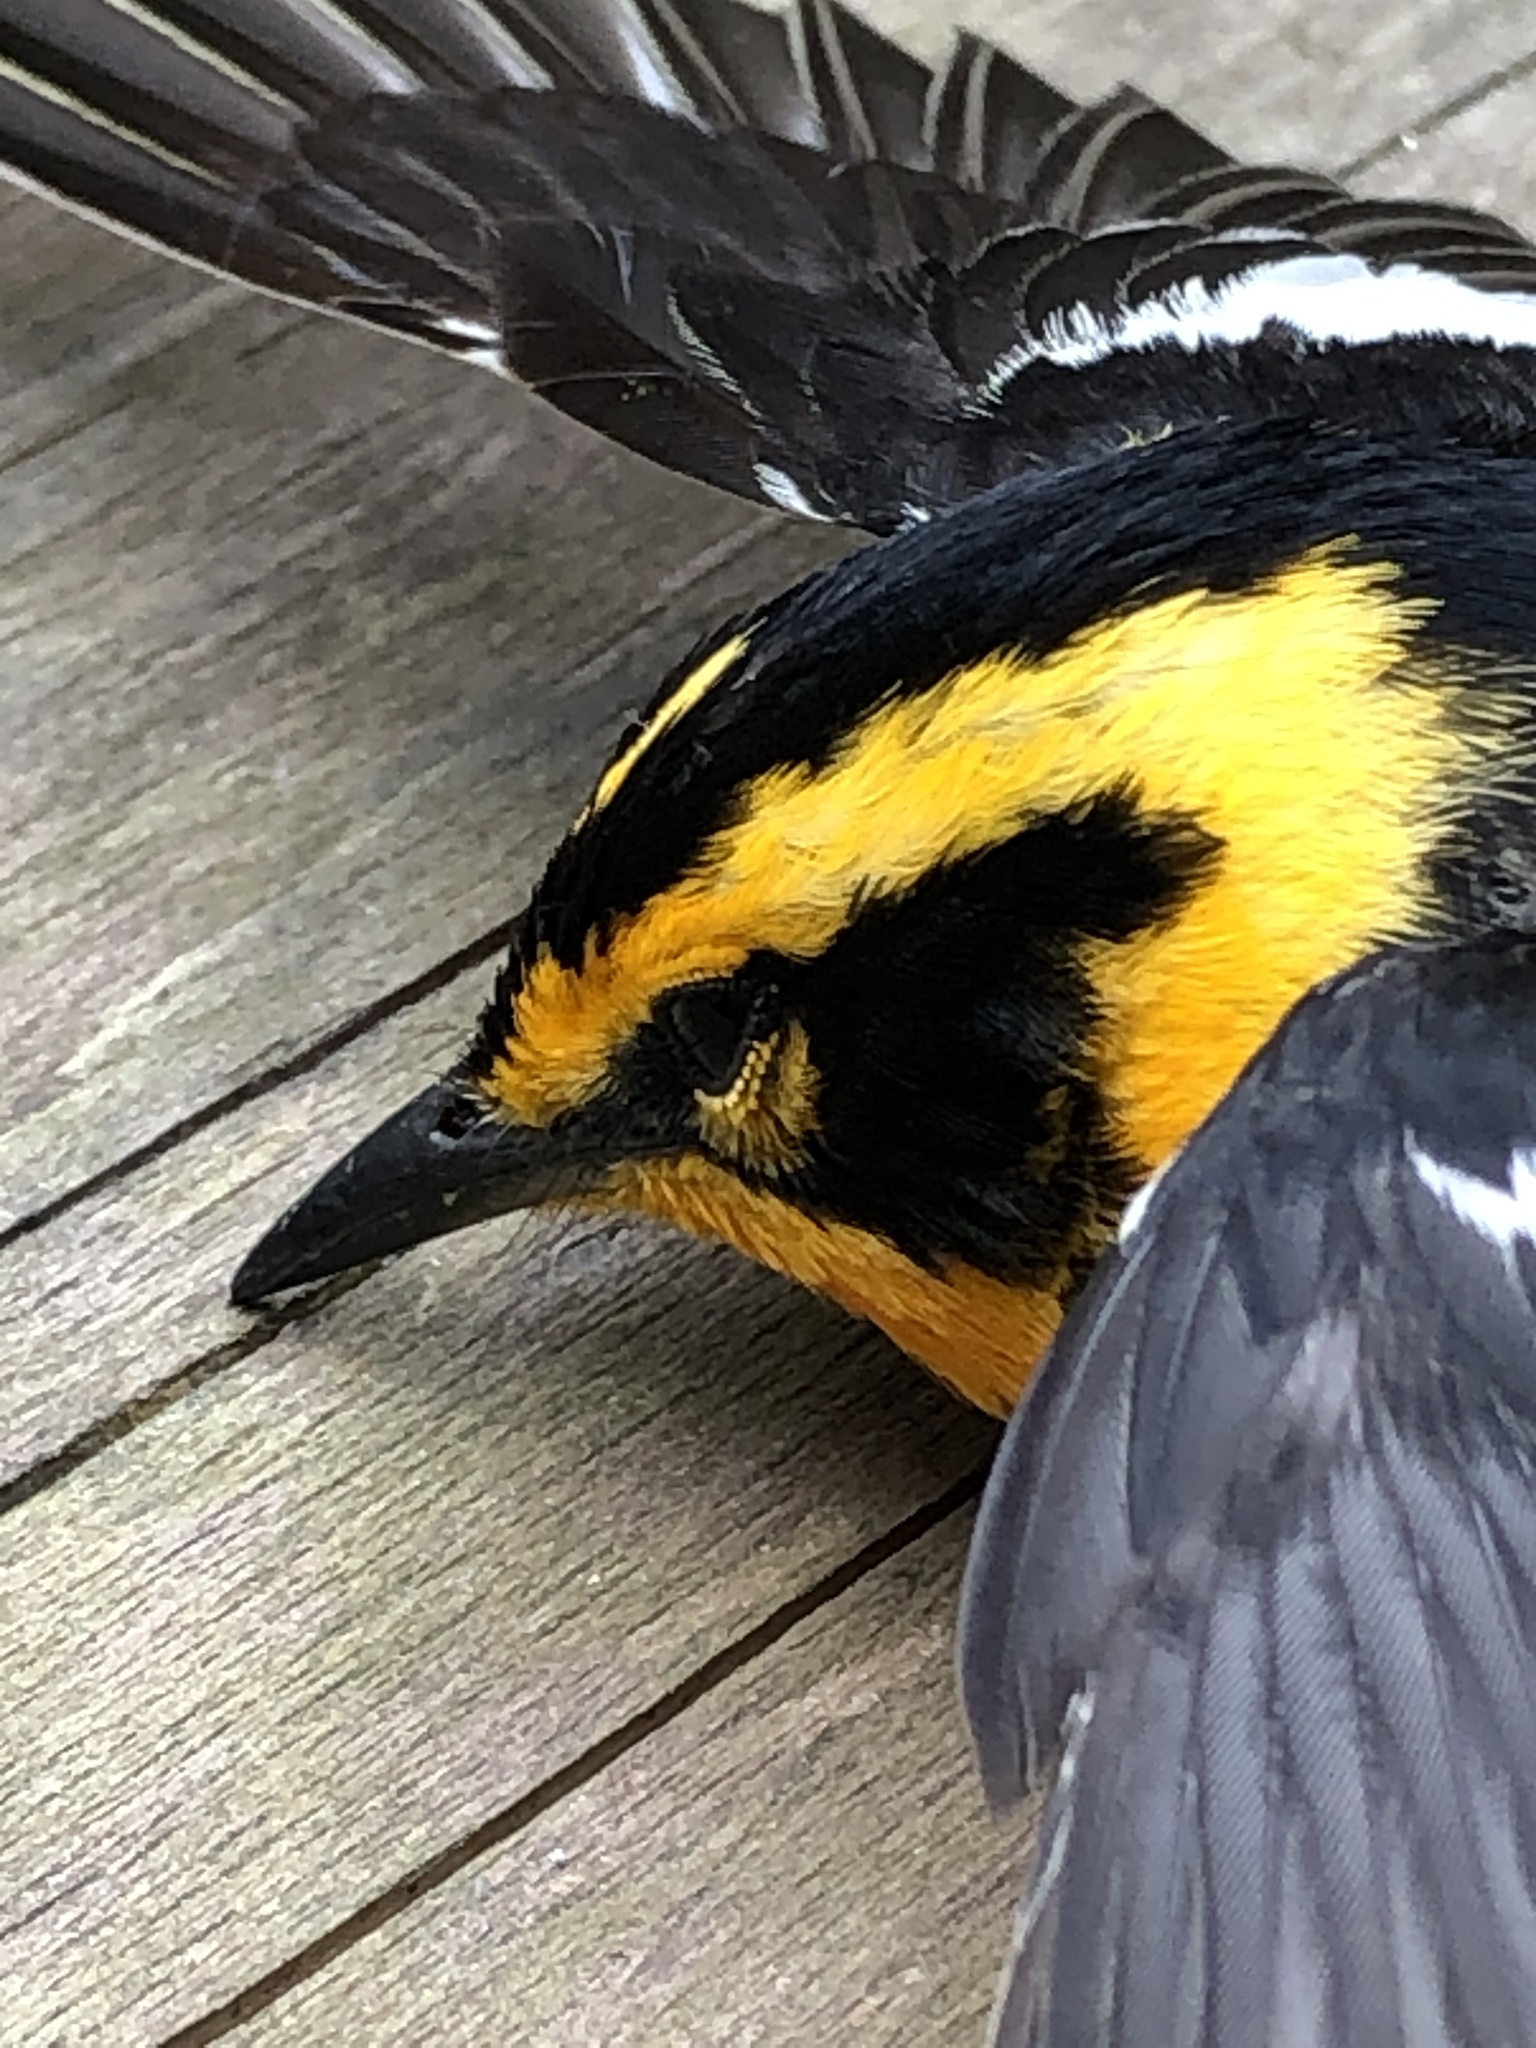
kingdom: Animalia
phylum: Chordata
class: Aves
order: Passeriformes
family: Parulidae
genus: Setophaga
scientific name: Setophaga fusca
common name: Blackburnian warbler
